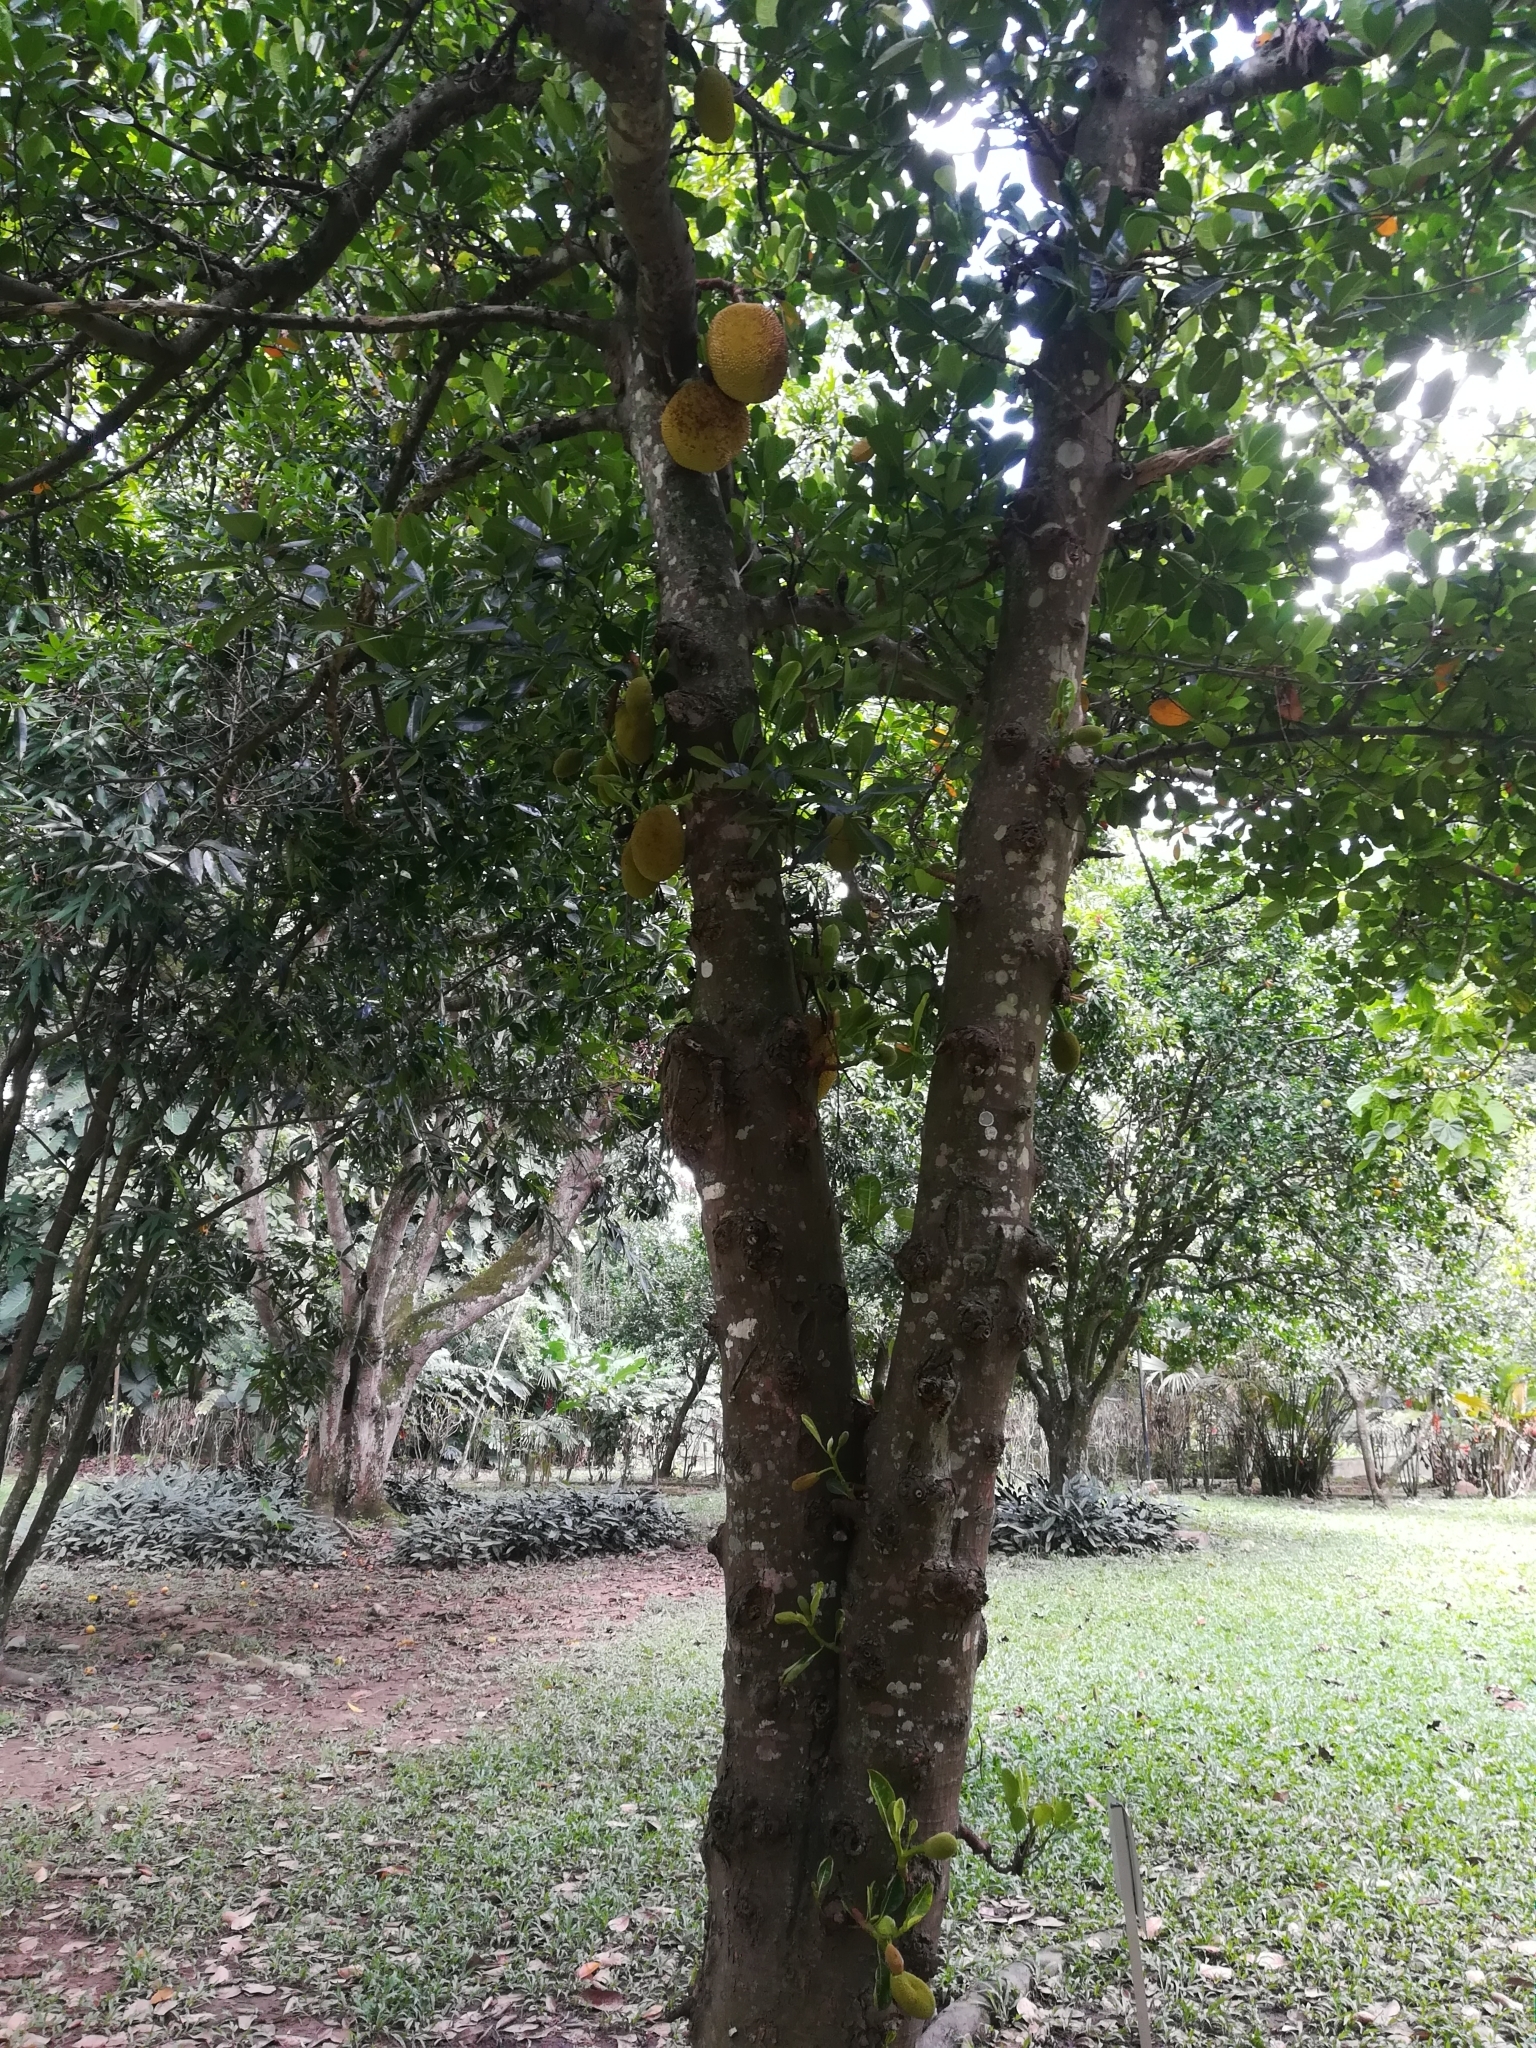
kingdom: Plantae
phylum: Tracheophyta
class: Magnoliopsida
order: Rosales
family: Moraceae
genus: Artocarpus
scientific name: Artocarpus heterophyllus
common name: Jackfruit
